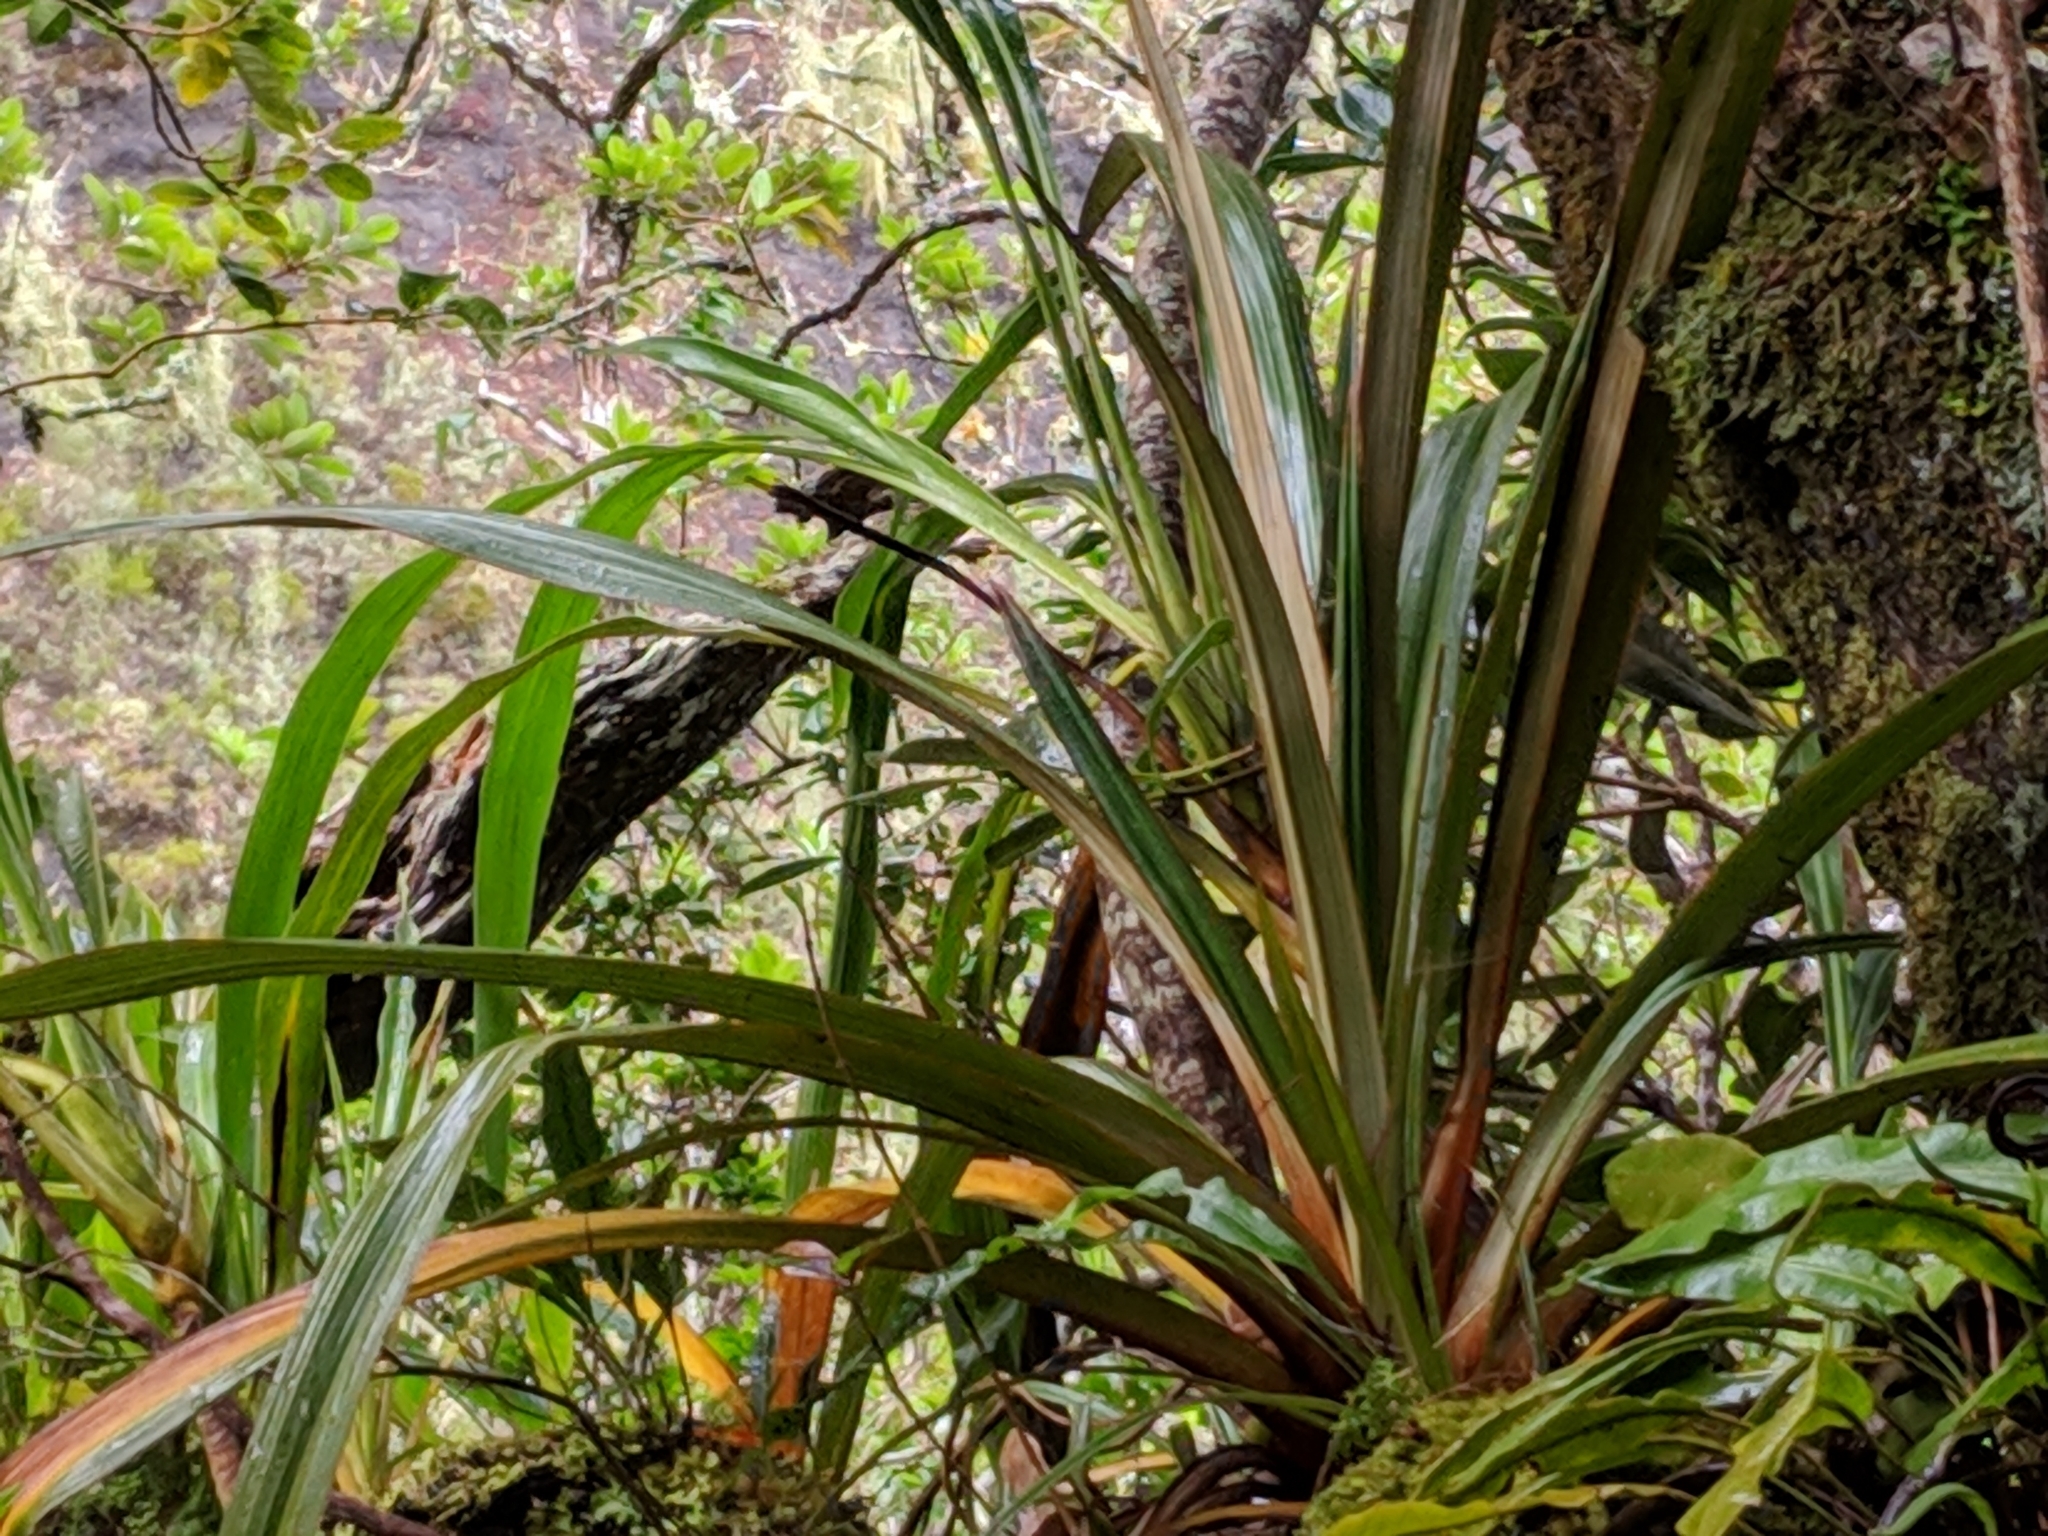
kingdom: Plantae
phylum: Tracheophyta
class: Liliopsida
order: Asparagales
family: Asteliaceae
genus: Astelia
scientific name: Astelia hemichrysa
